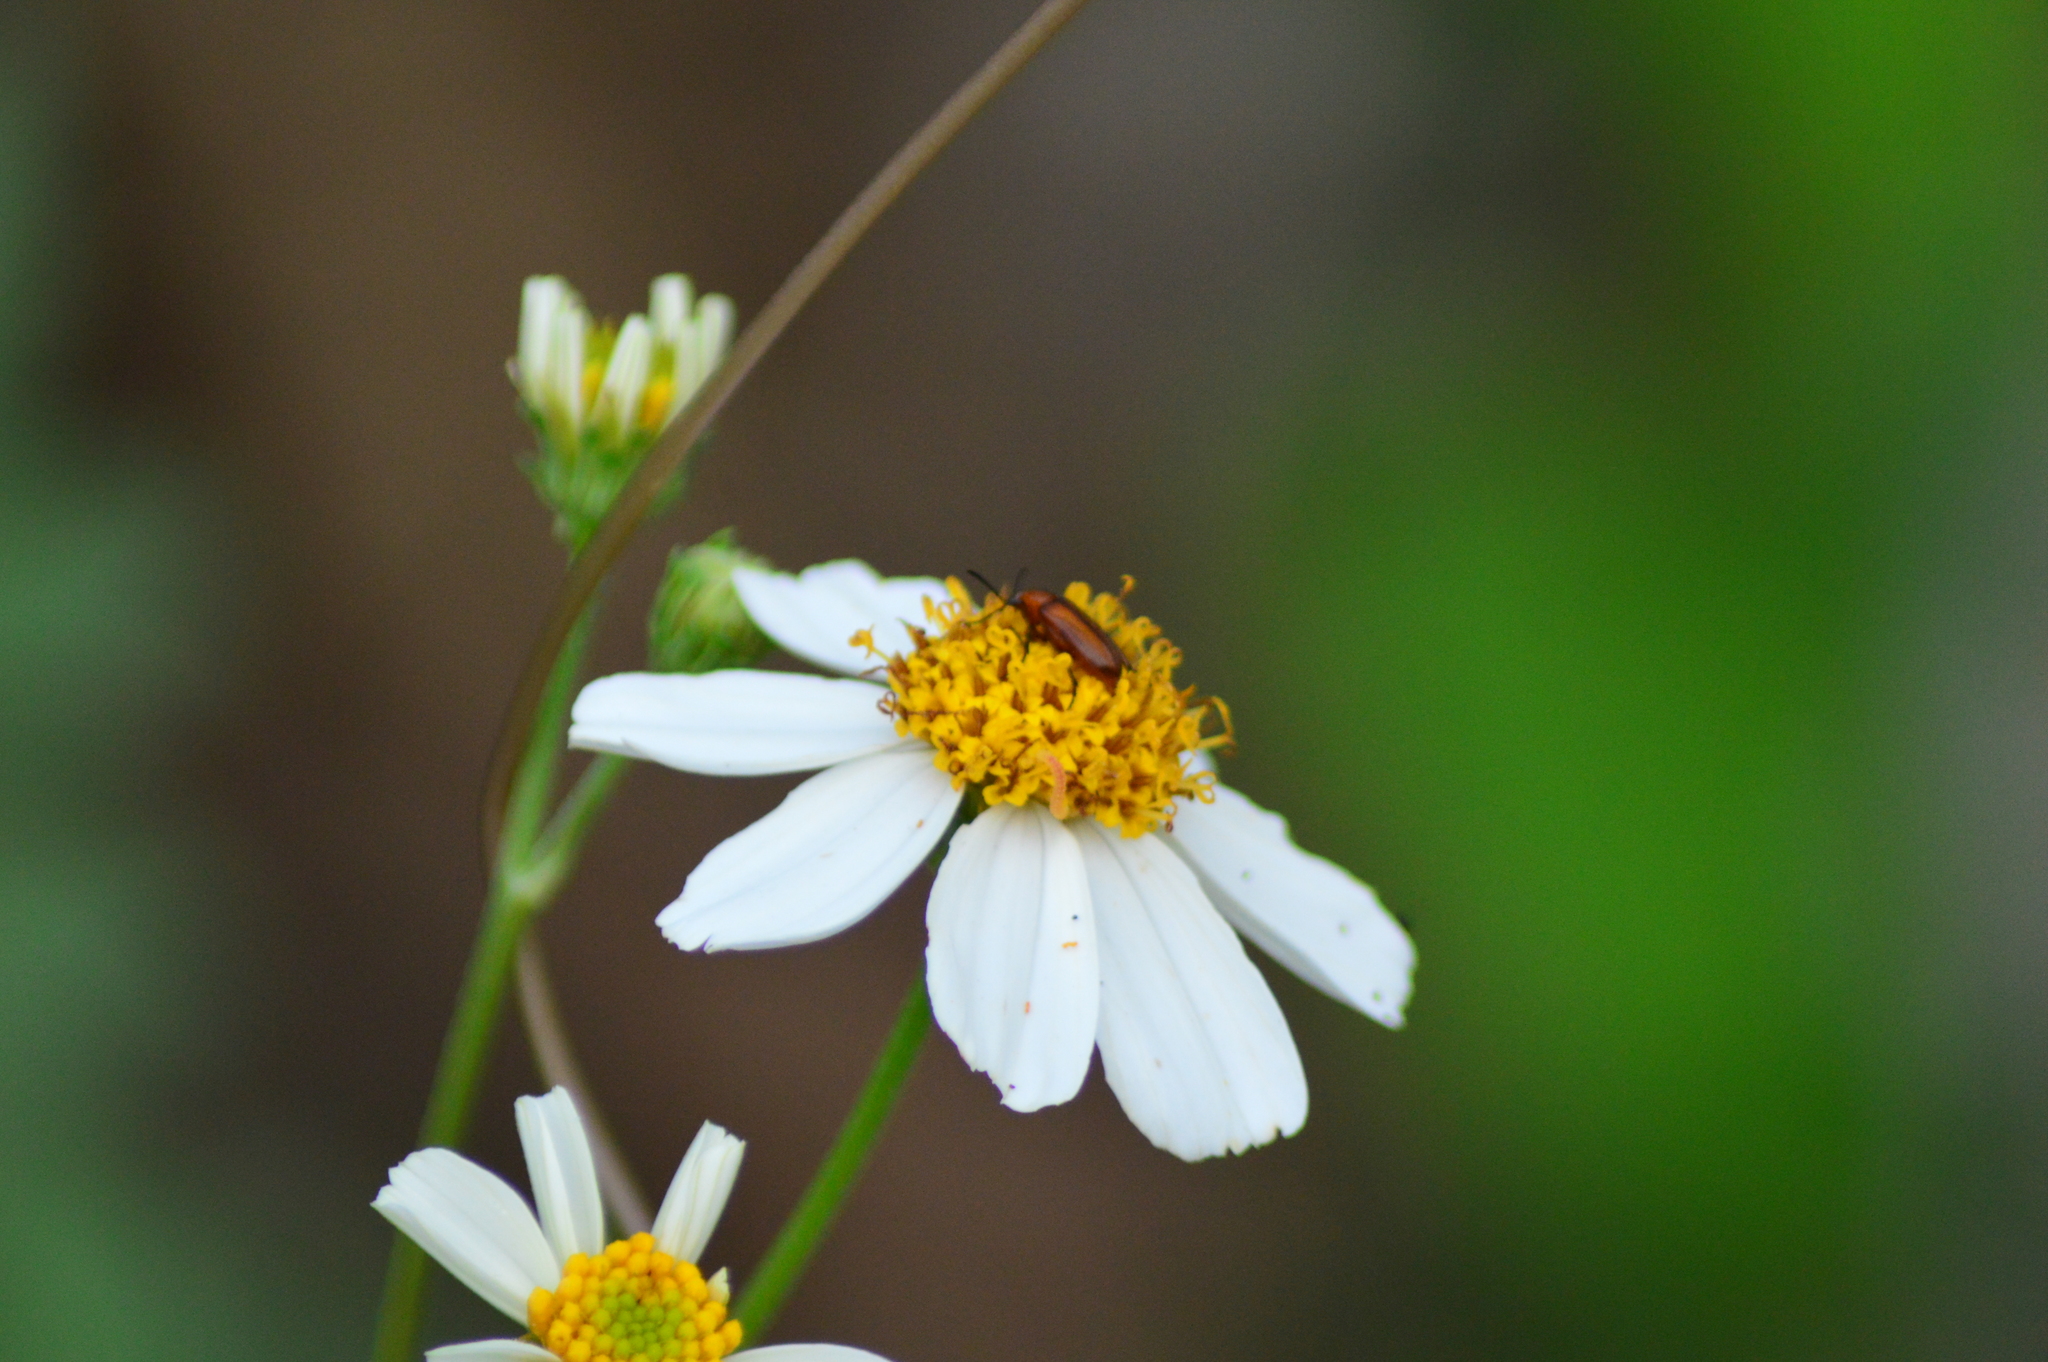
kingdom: Plantae
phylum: Tracheophyta
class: Magnoliopsida
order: Asterales
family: Asteraceae
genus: Bidens
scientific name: Bidens alba
